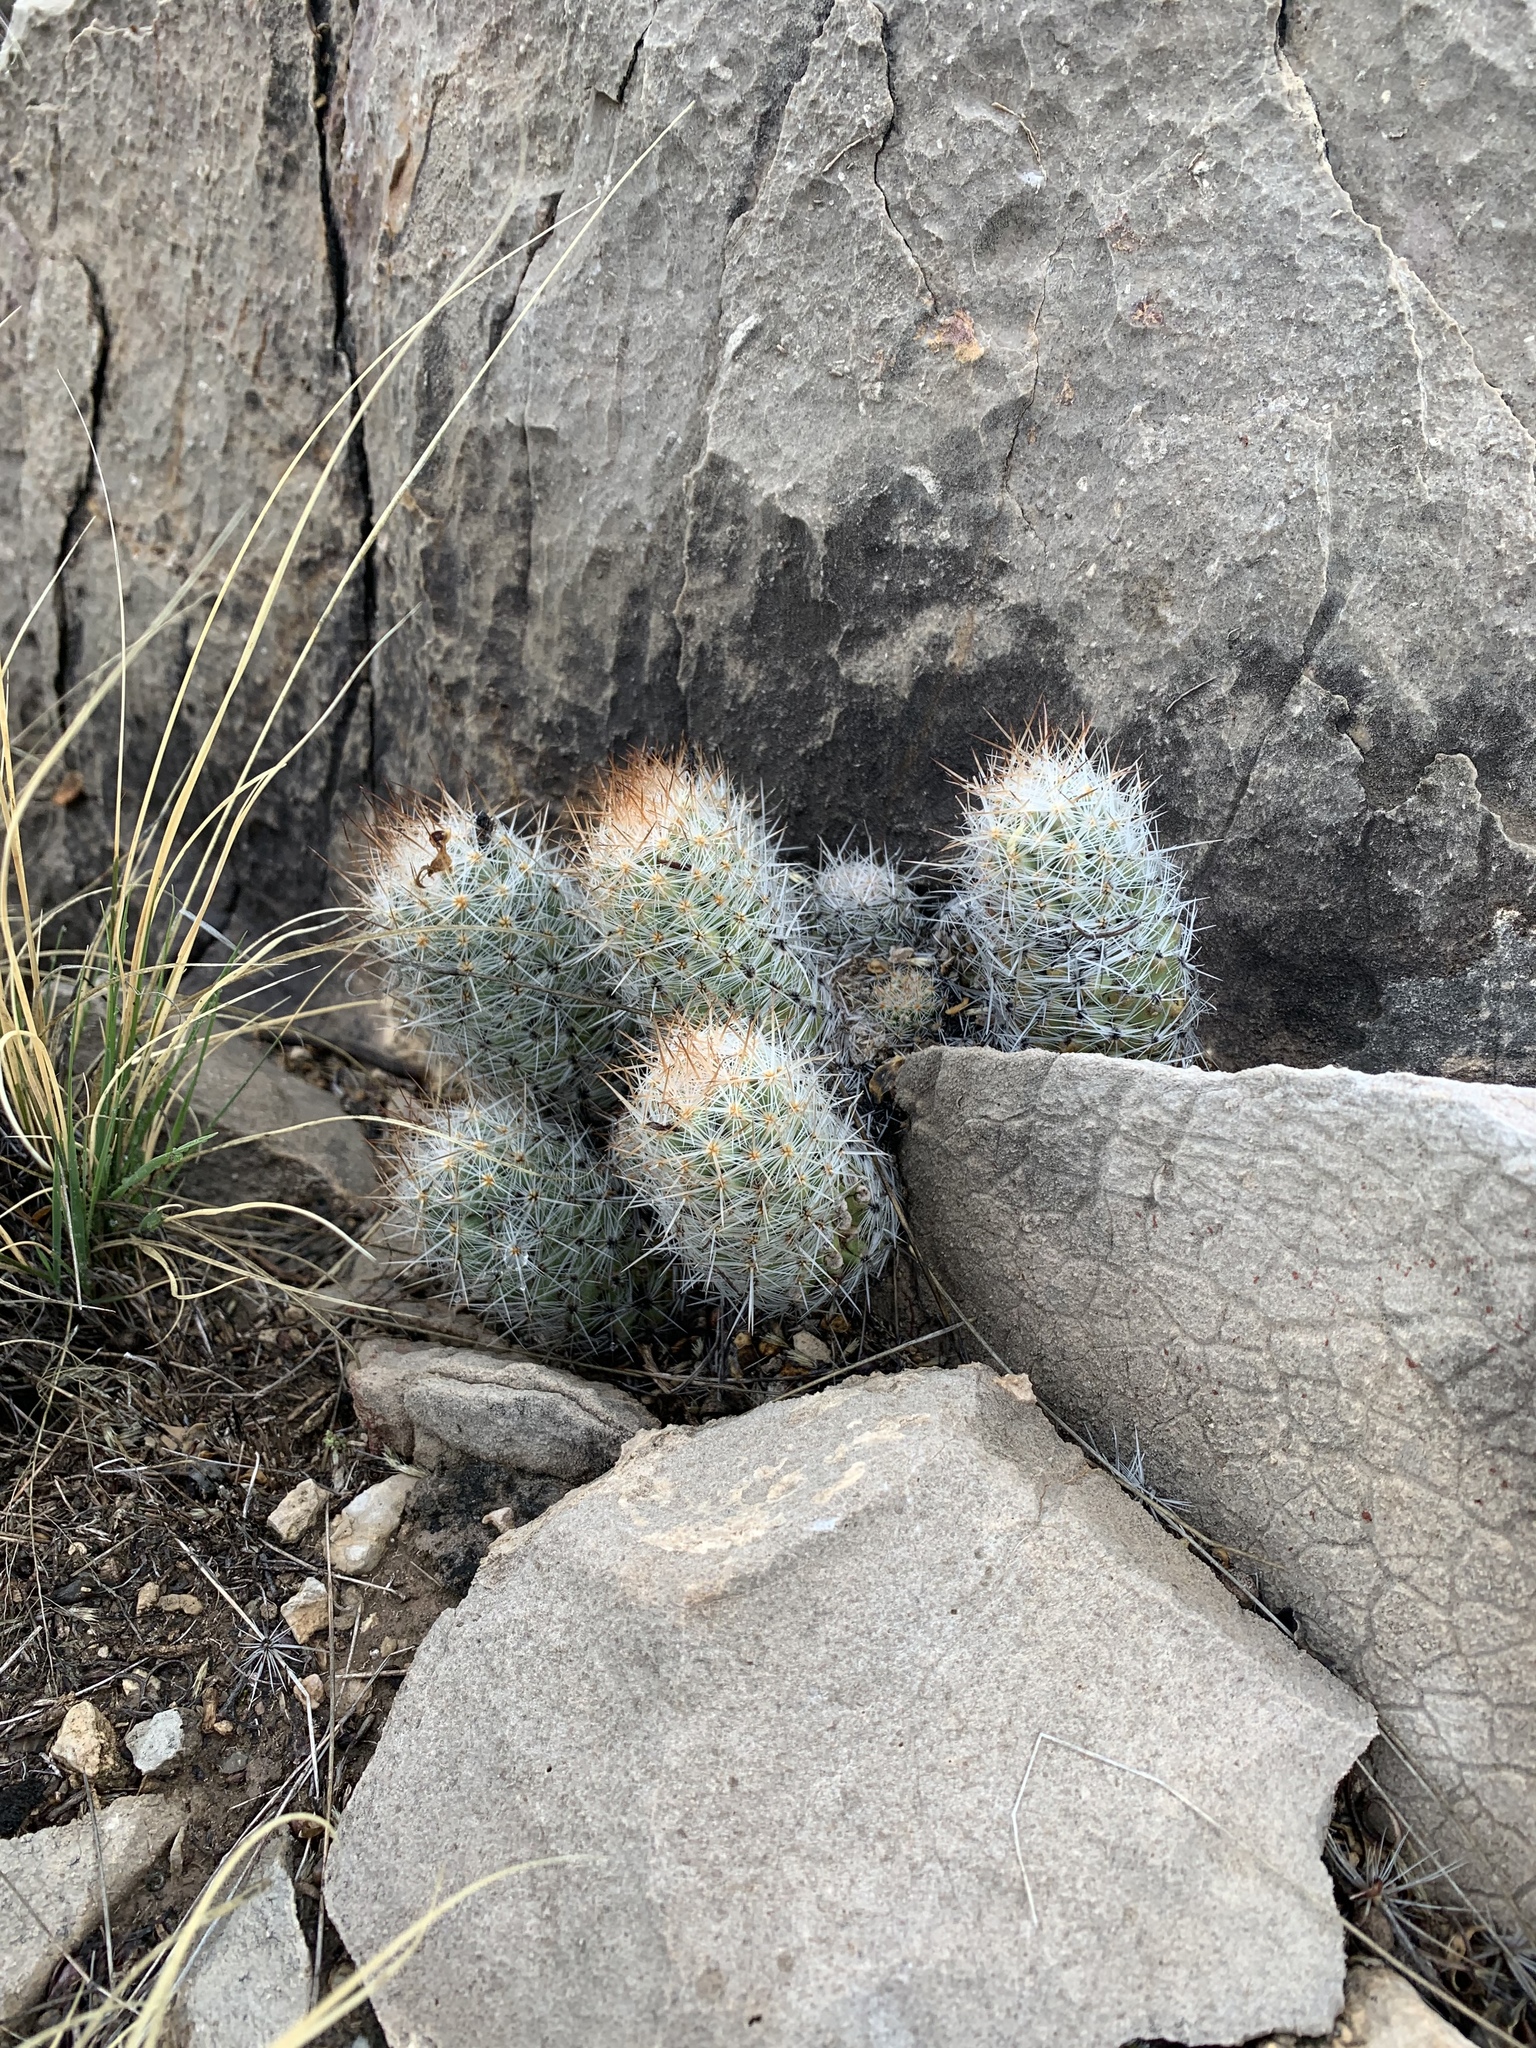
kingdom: Plantae
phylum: Tracheophyta
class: Magnoliopsida
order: Caryophyllales
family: Cactaceae
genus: Pelecyphora
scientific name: Pelecyphora tuberculosa
